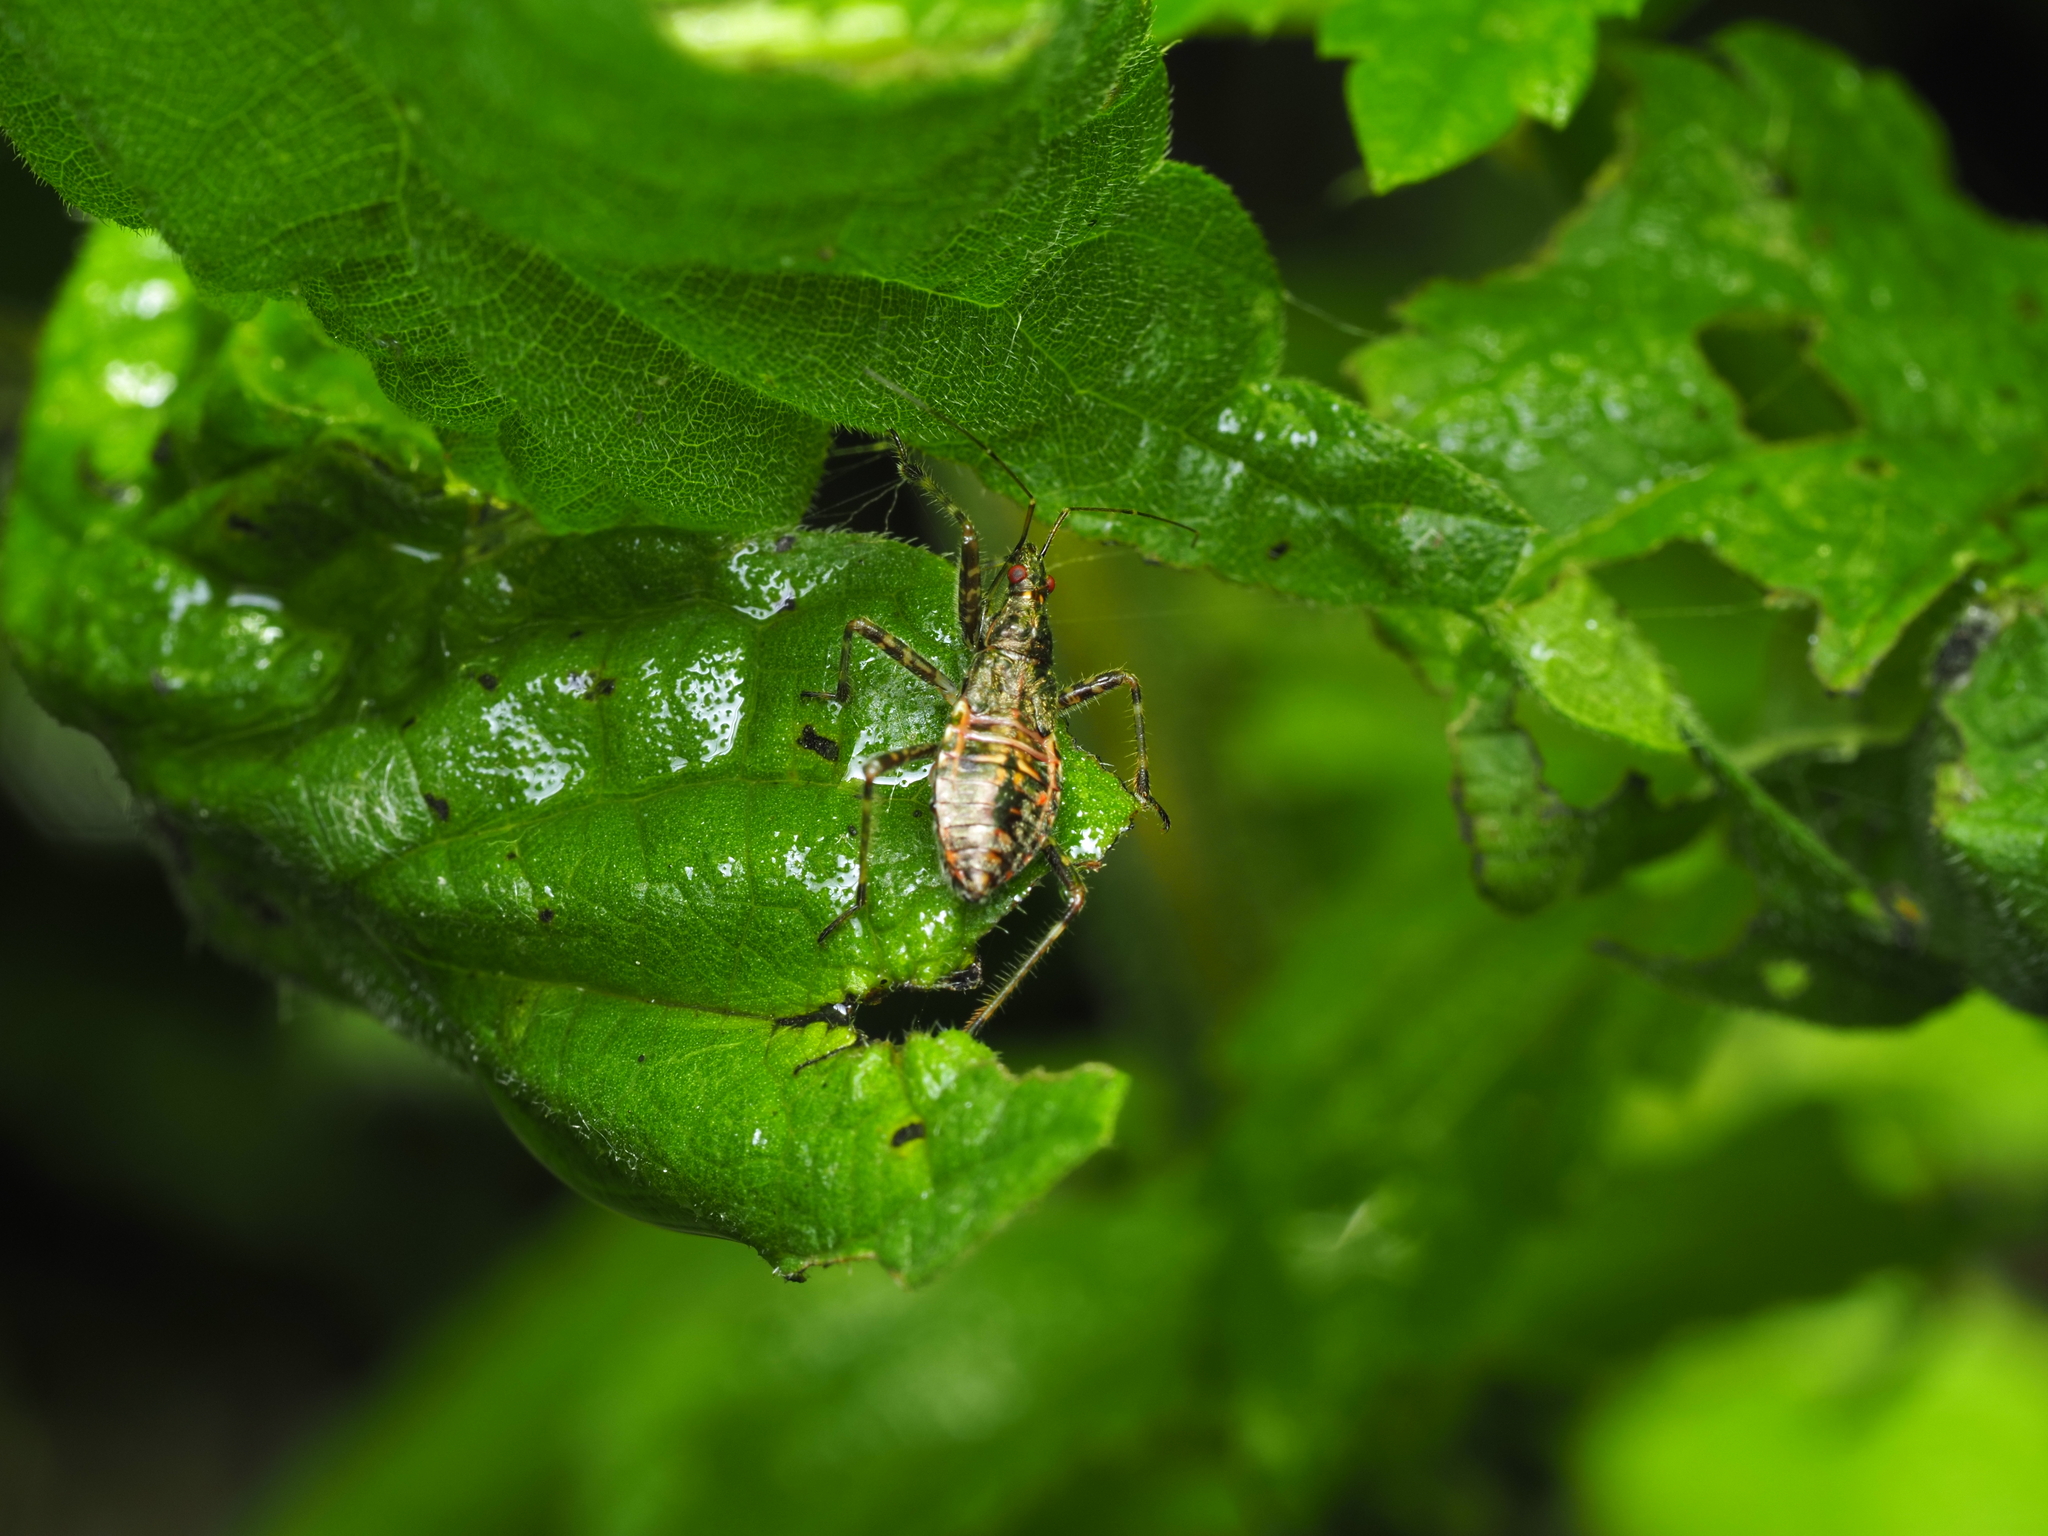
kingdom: Animalia
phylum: Arthropoda
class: Insecta
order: Hemiptera
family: Nabidae
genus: Himacerus
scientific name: Himacerus apterus
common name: Tree damsel bug
